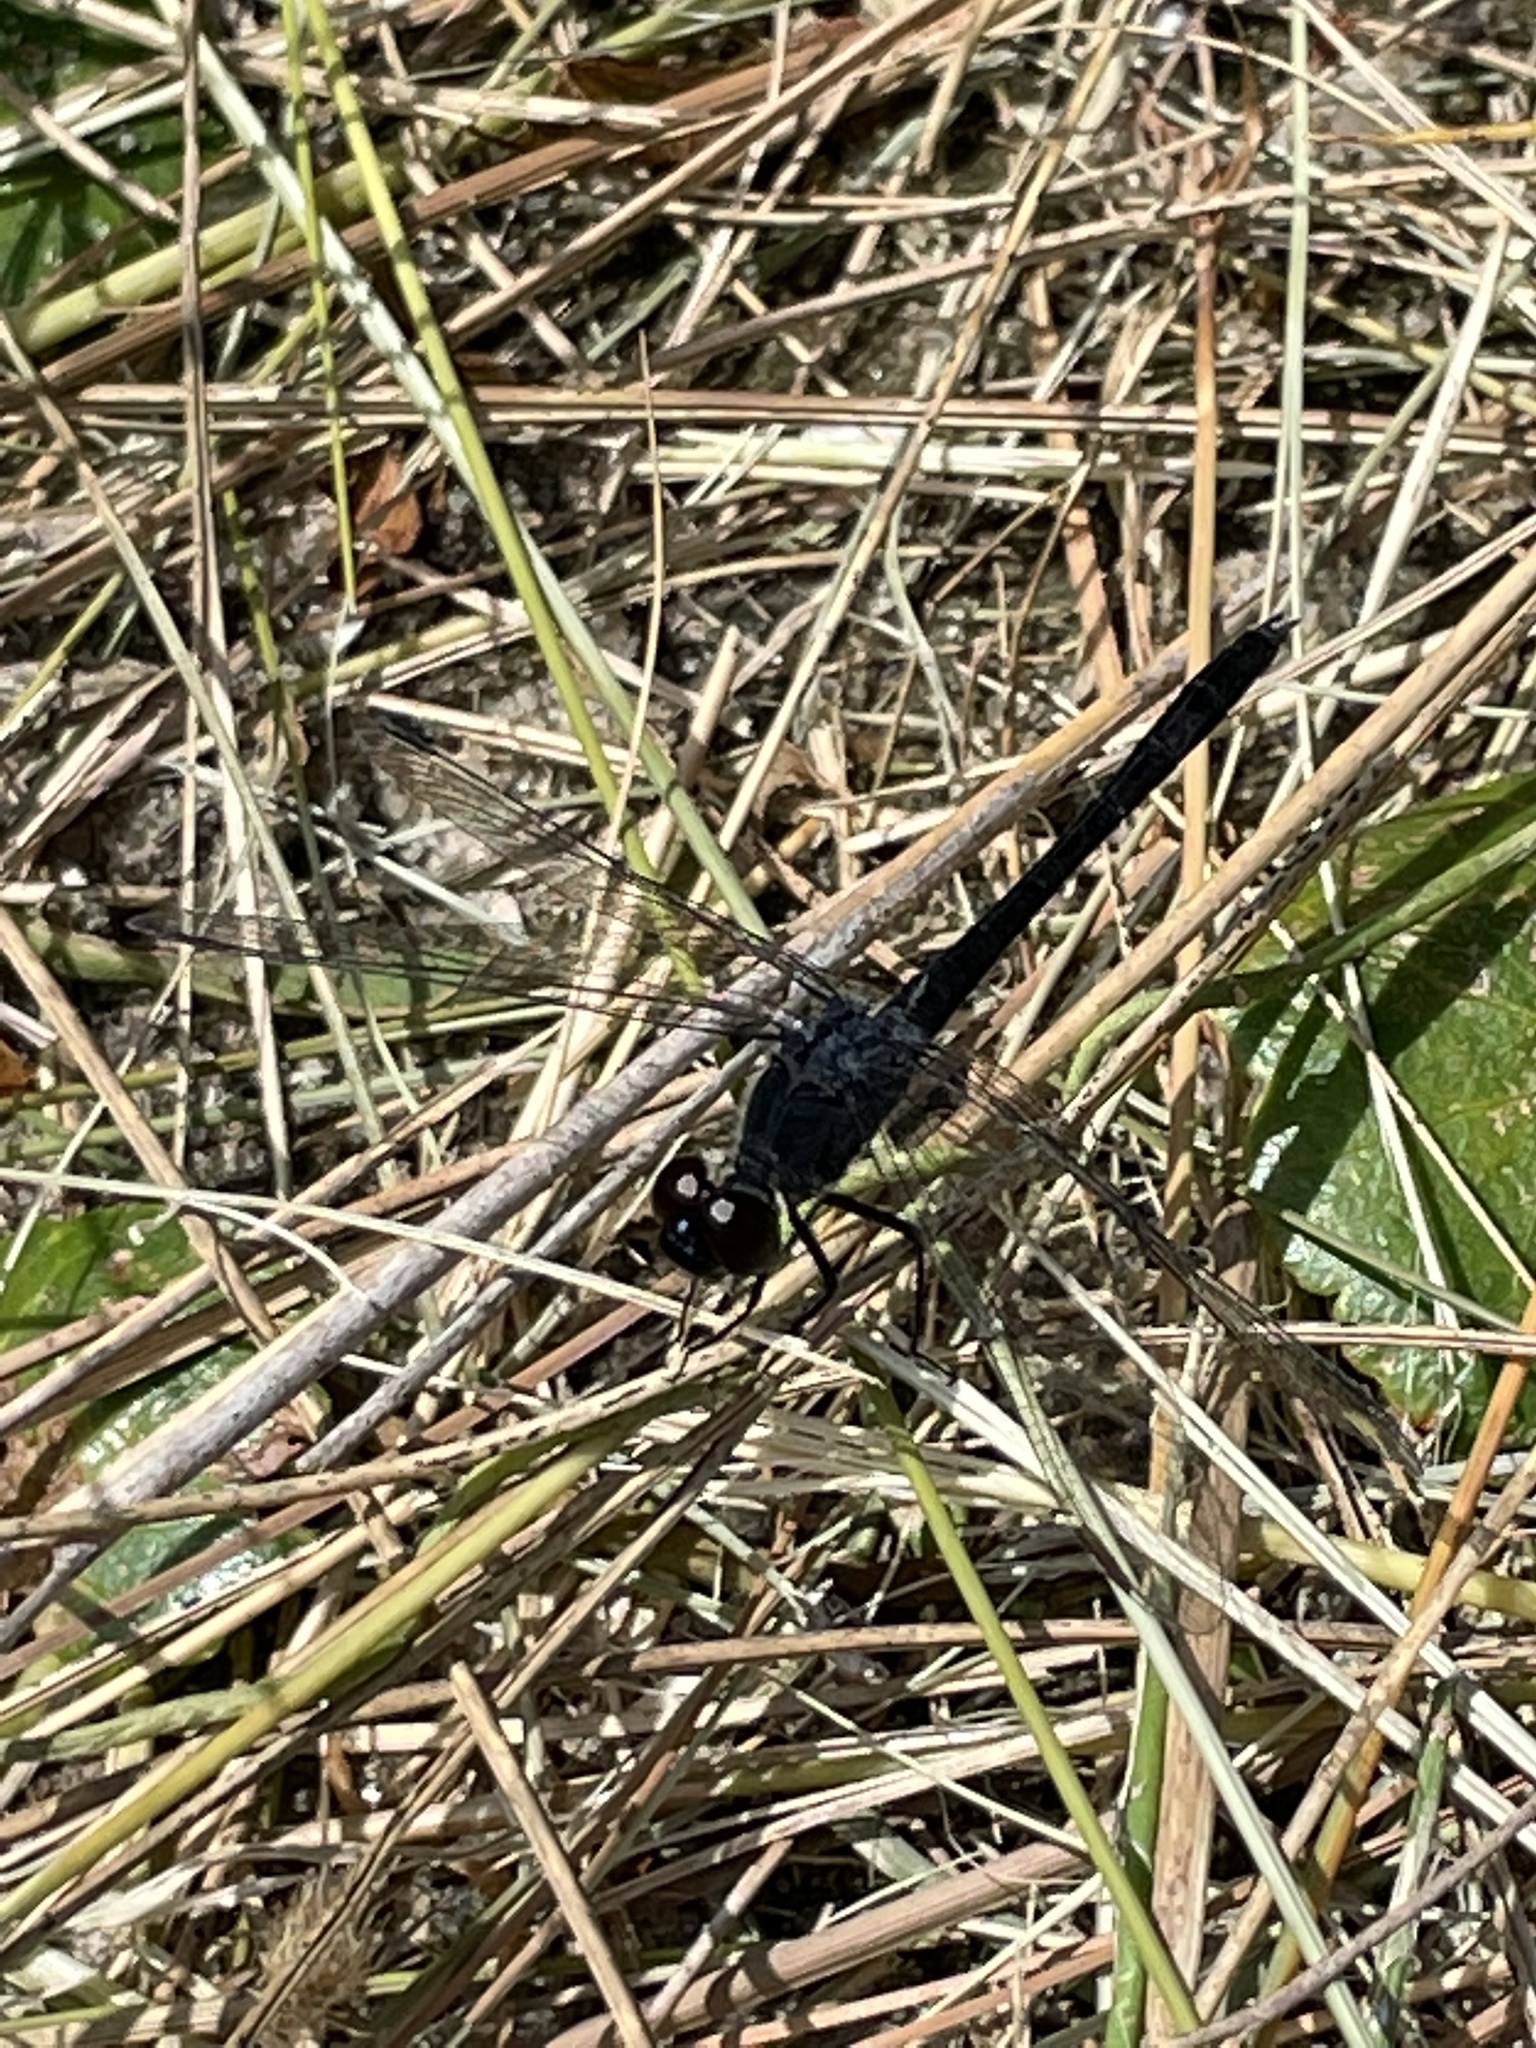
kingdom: Animalia
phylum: Arthropoda
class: Insecta
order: Odonata
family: Libellulidae
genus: Erythrodiplax
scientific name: Erythrodiplax berenice
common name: Seaside dragonlet
